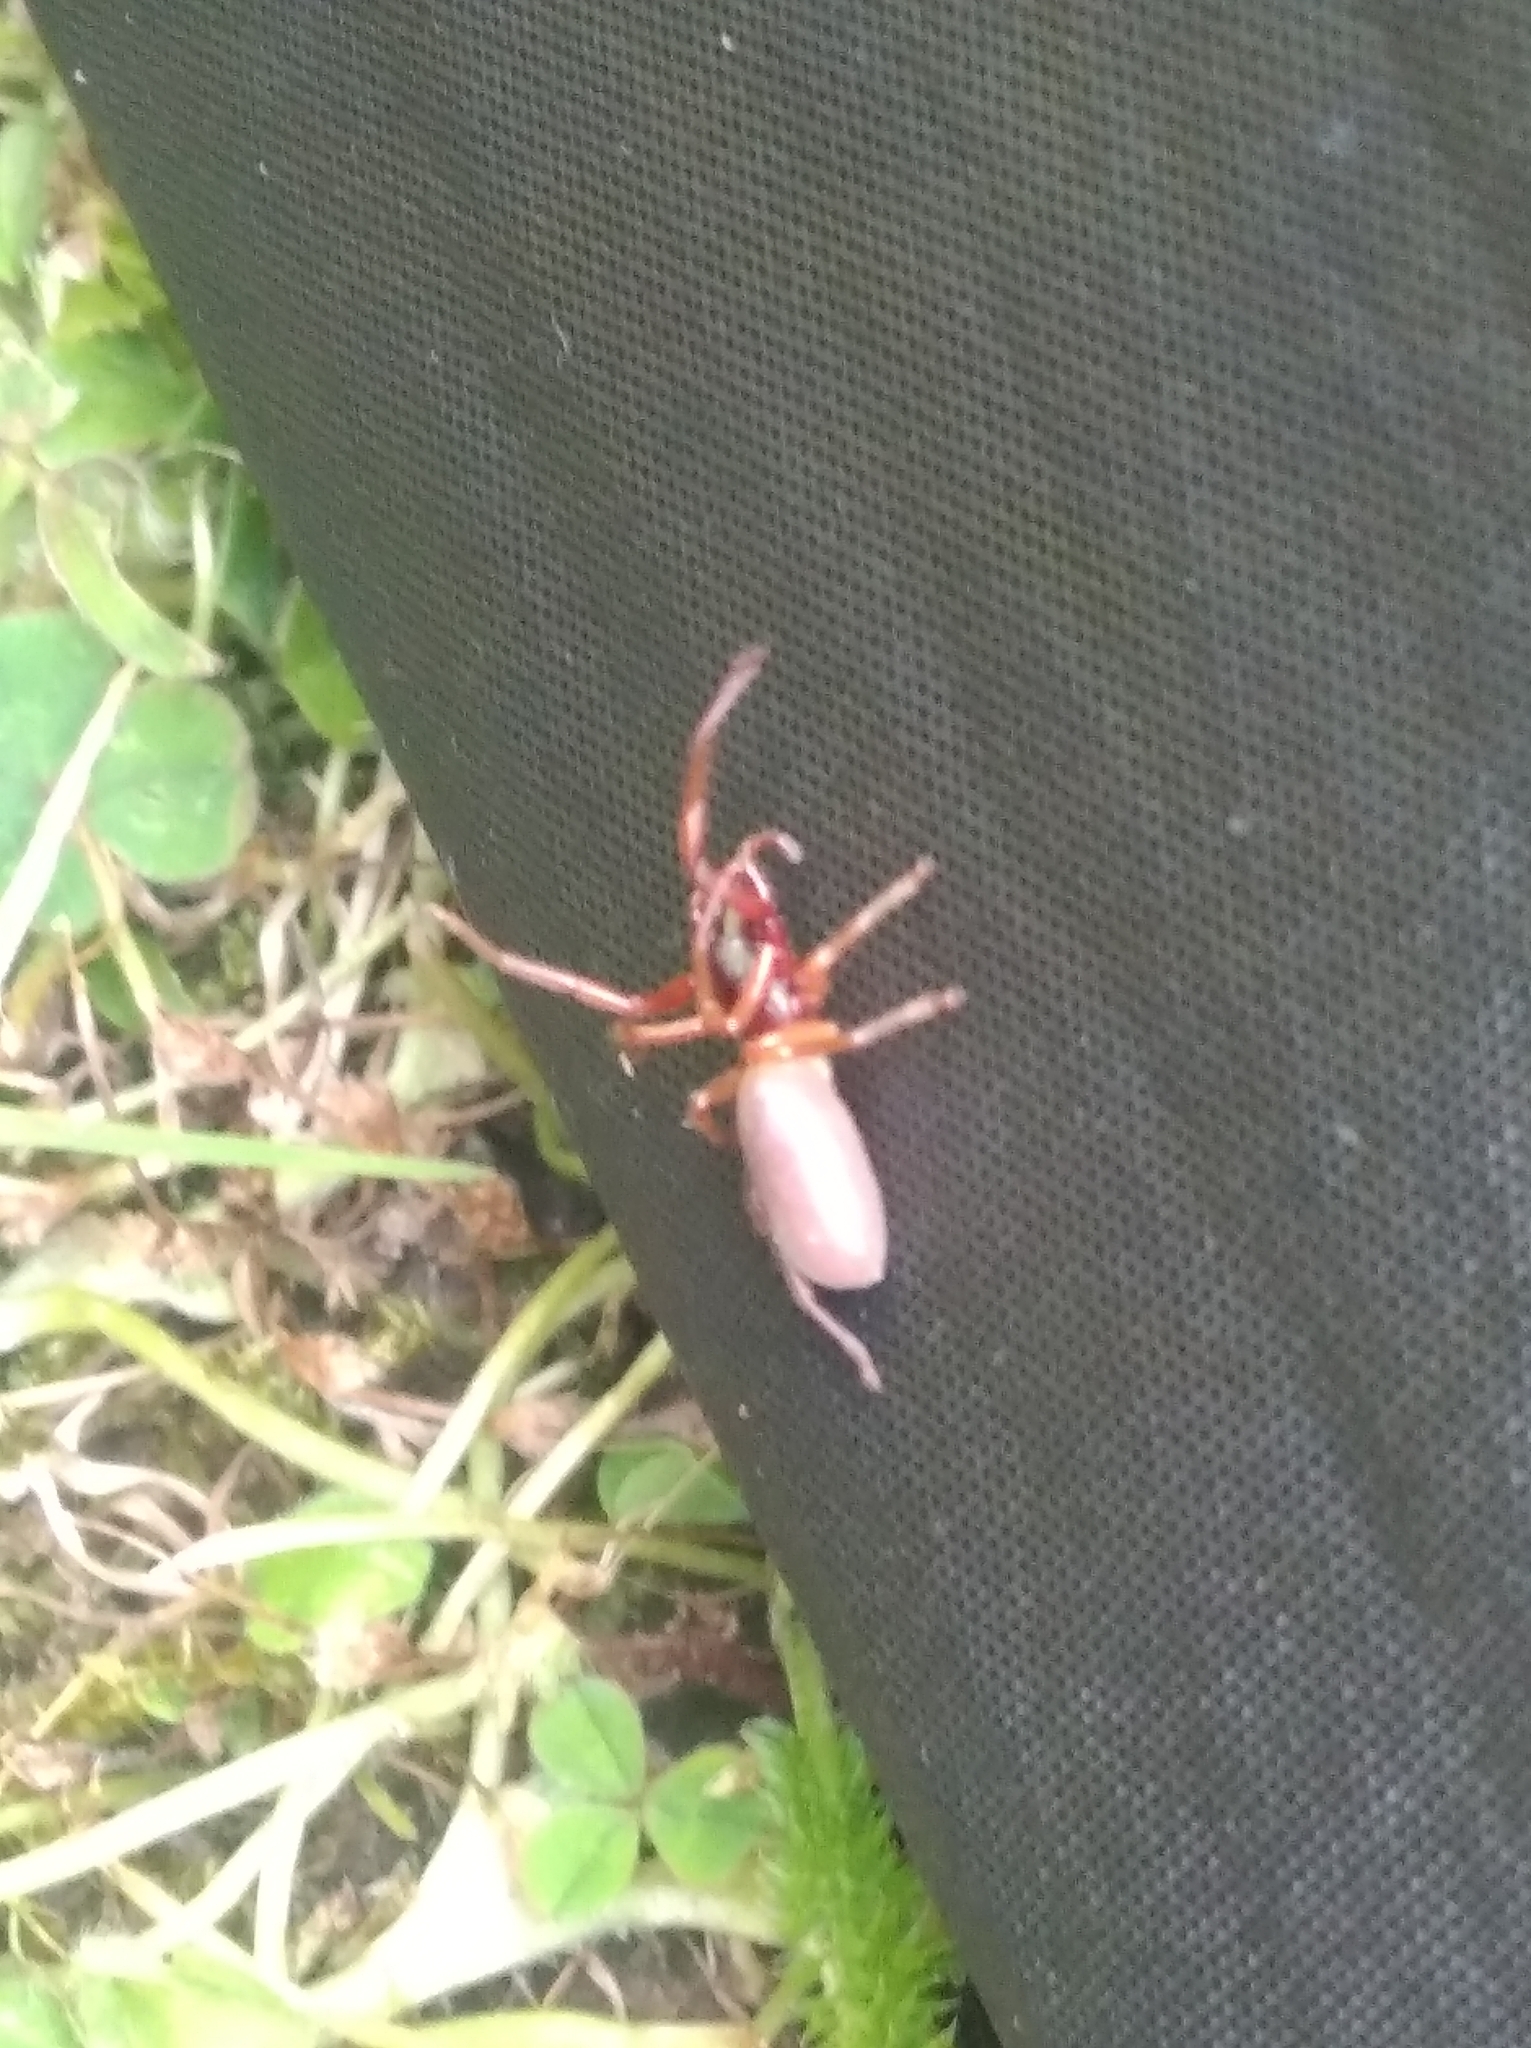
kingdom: Animalia
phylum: Arthropoda
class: Arachnida
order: Araneae
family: Dysderidae
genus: Dysdera
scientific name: Dysdera
